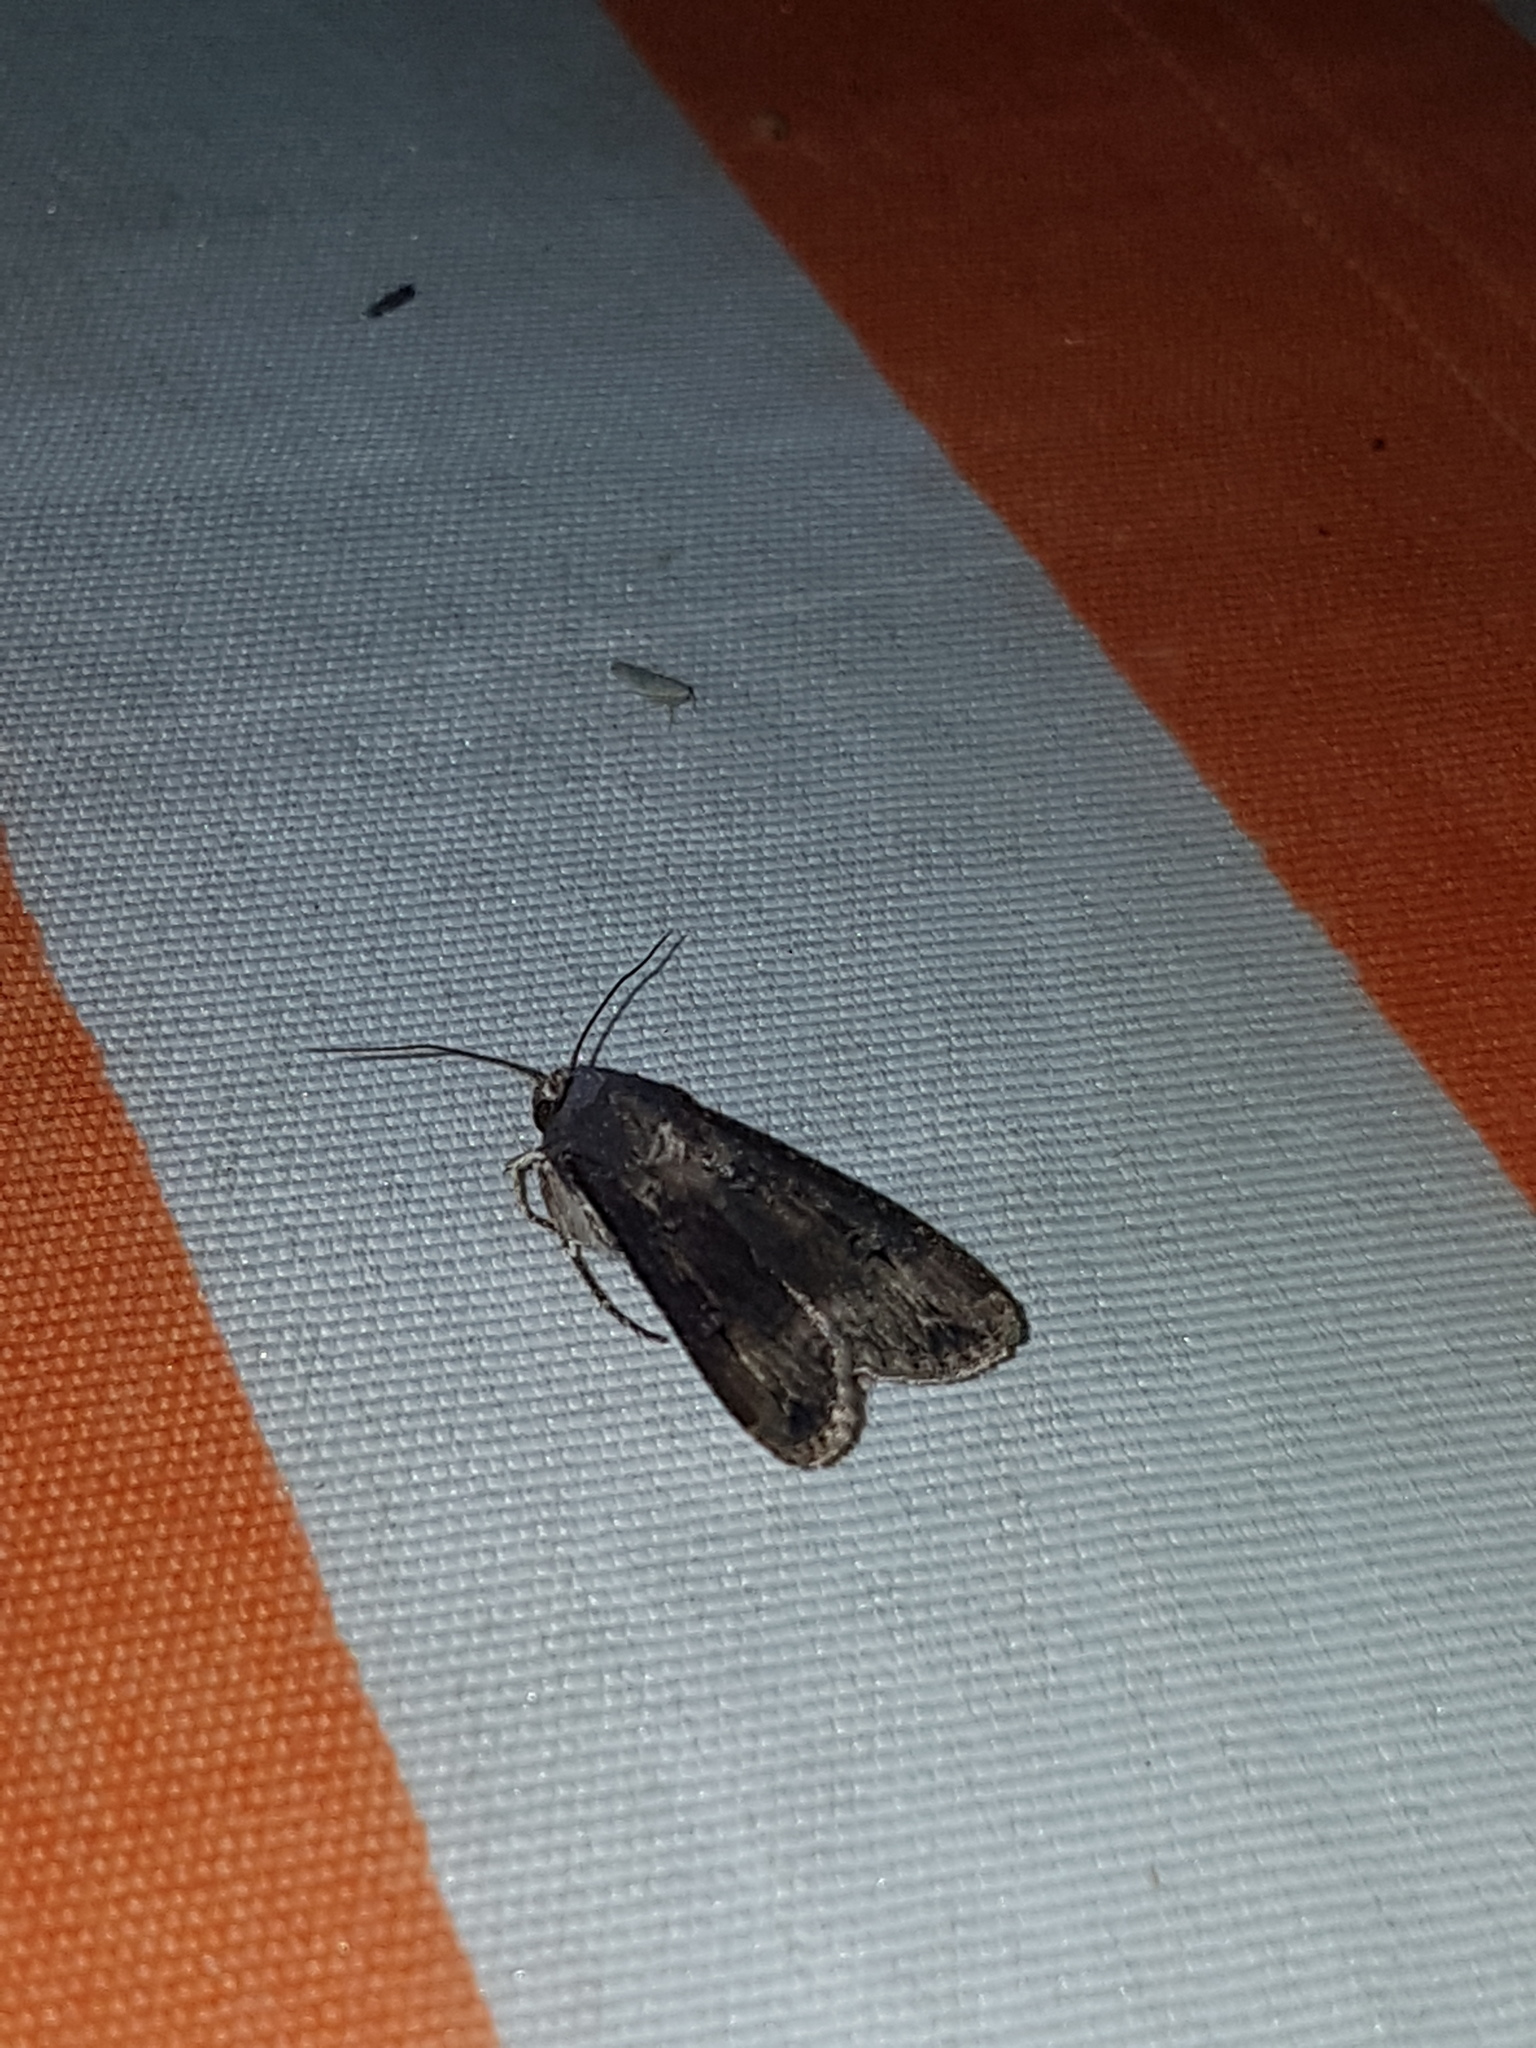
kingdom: Animalia
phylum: Arthropoda
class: Insecta
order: Lepidoptera
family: Noctuidae
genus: Agrotis
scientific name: Agrotis ipsilon
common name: Dark sword-grass
